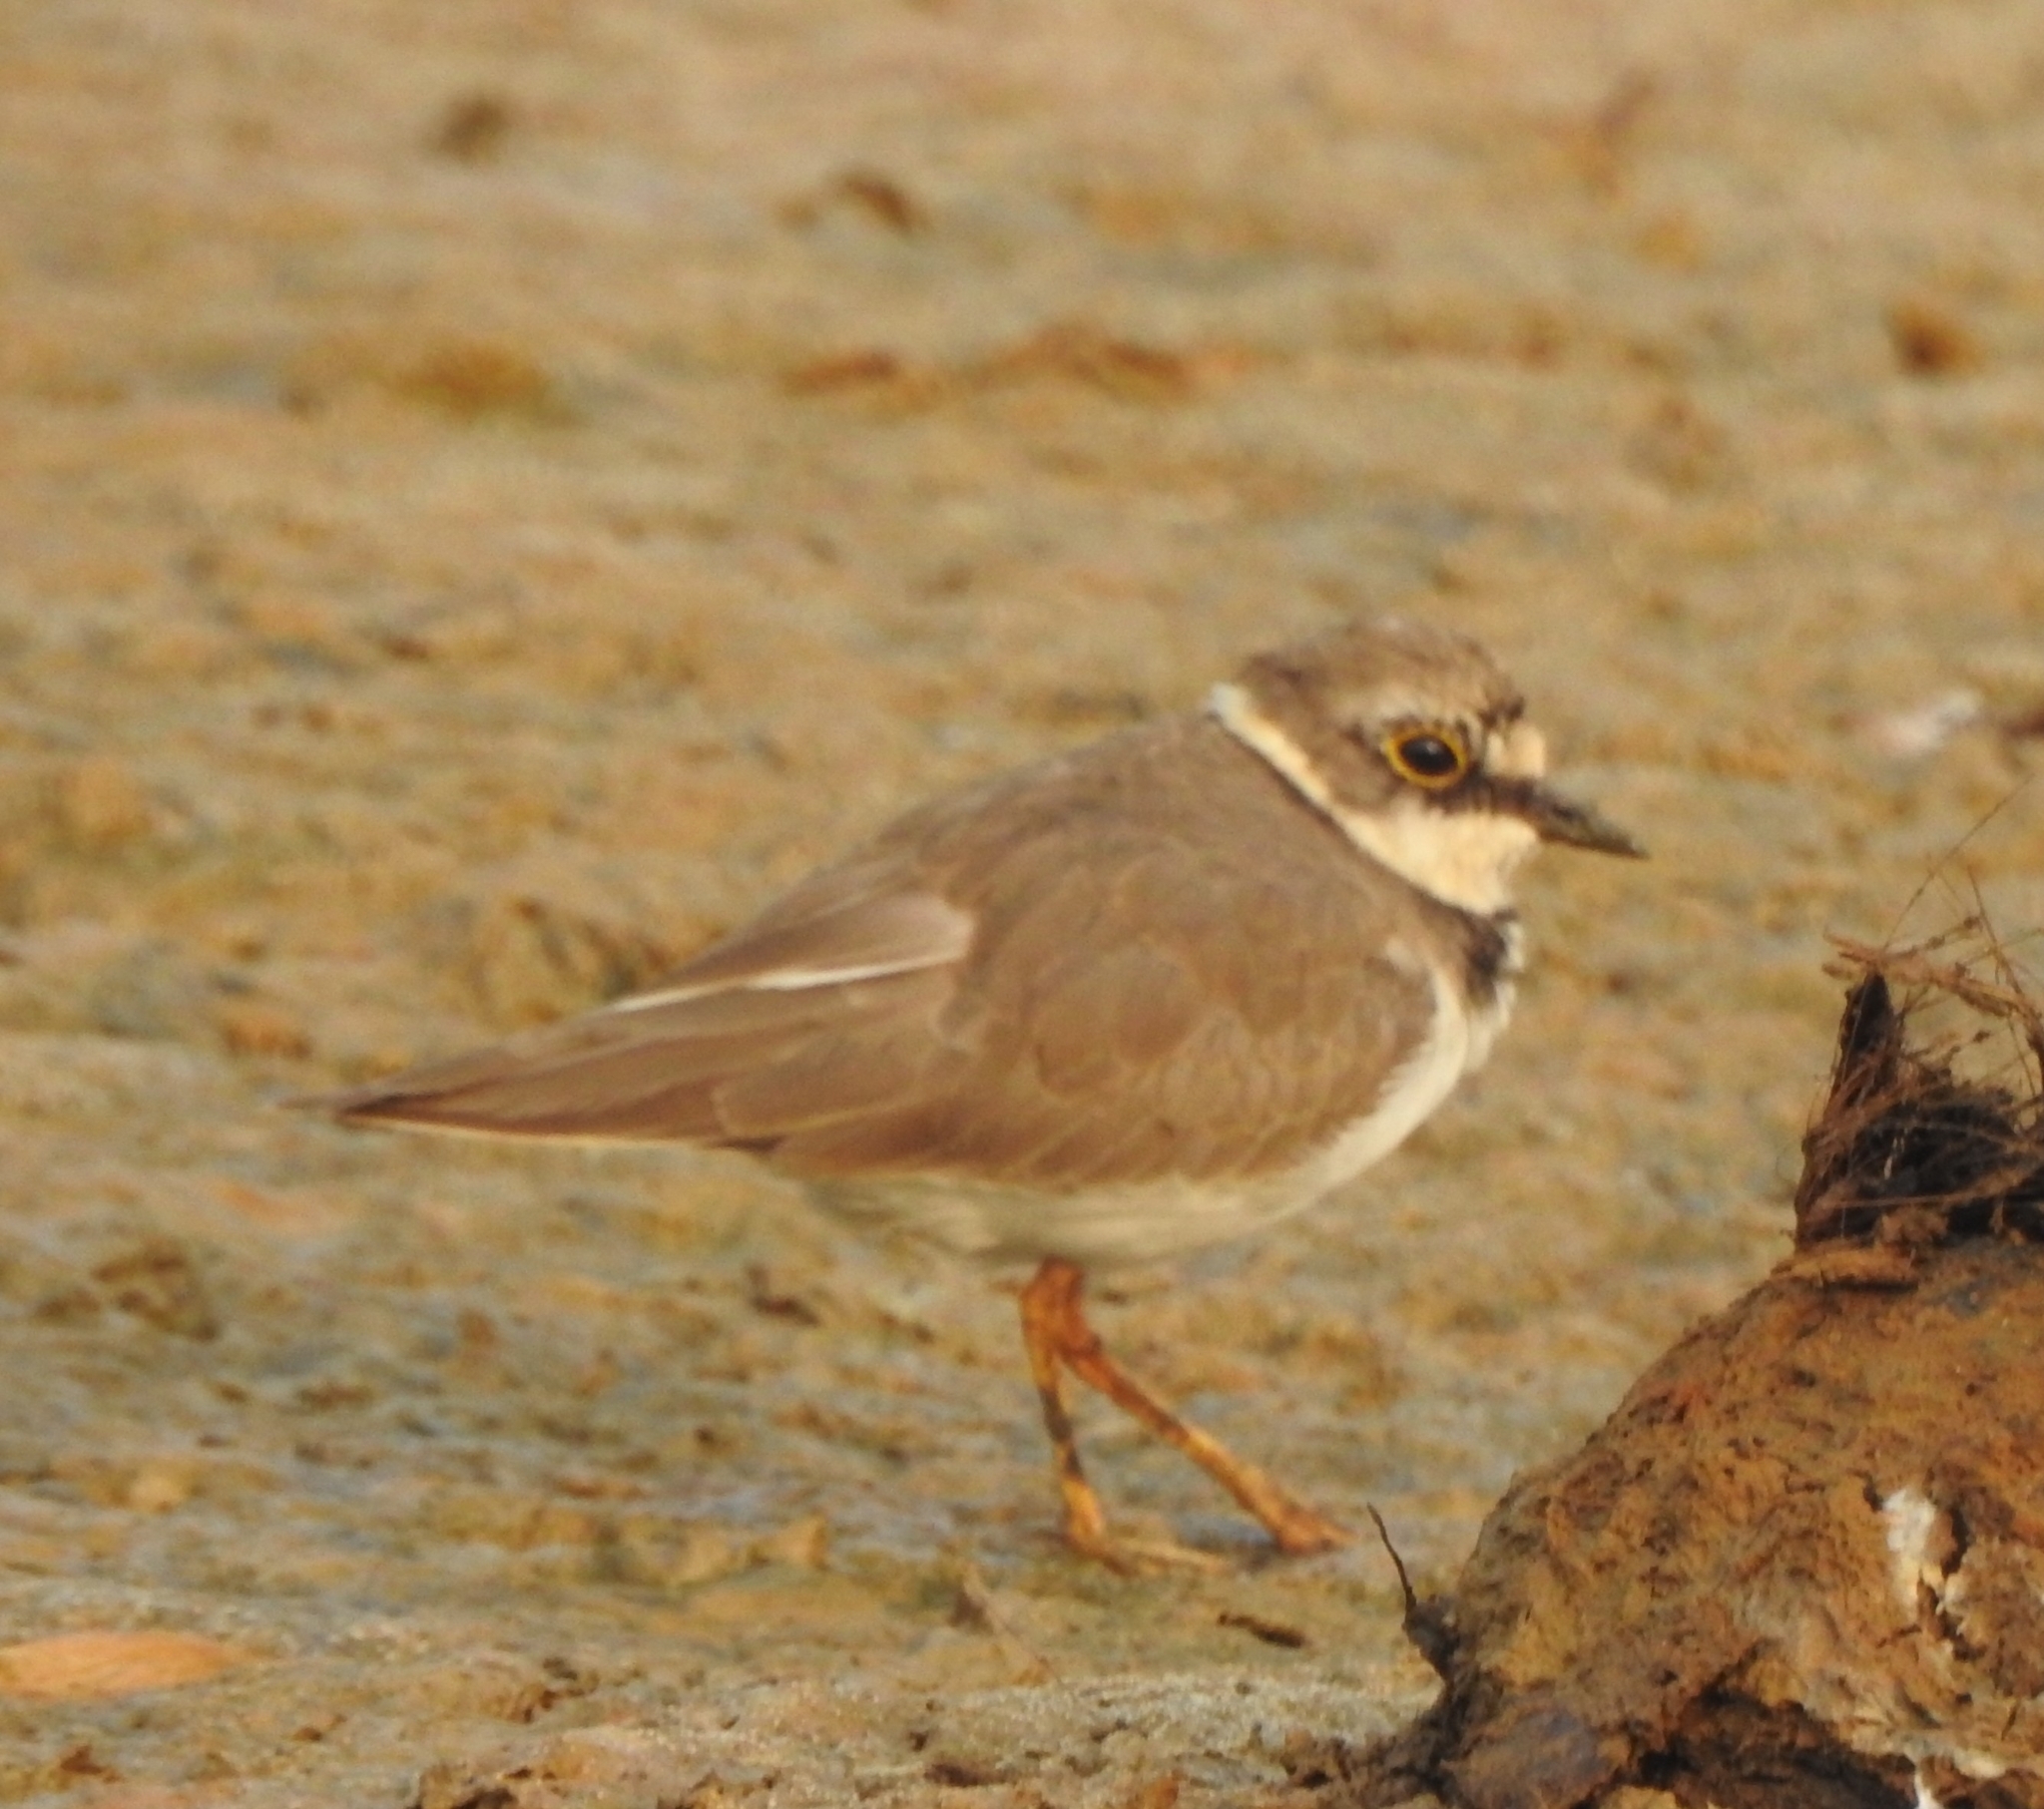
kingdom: Animalia
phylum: Chordata
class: Aves
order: Charadriiformes
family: Charadriidae
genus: Charadrius
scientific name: Charadrius dubius
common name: Little ringed plover
